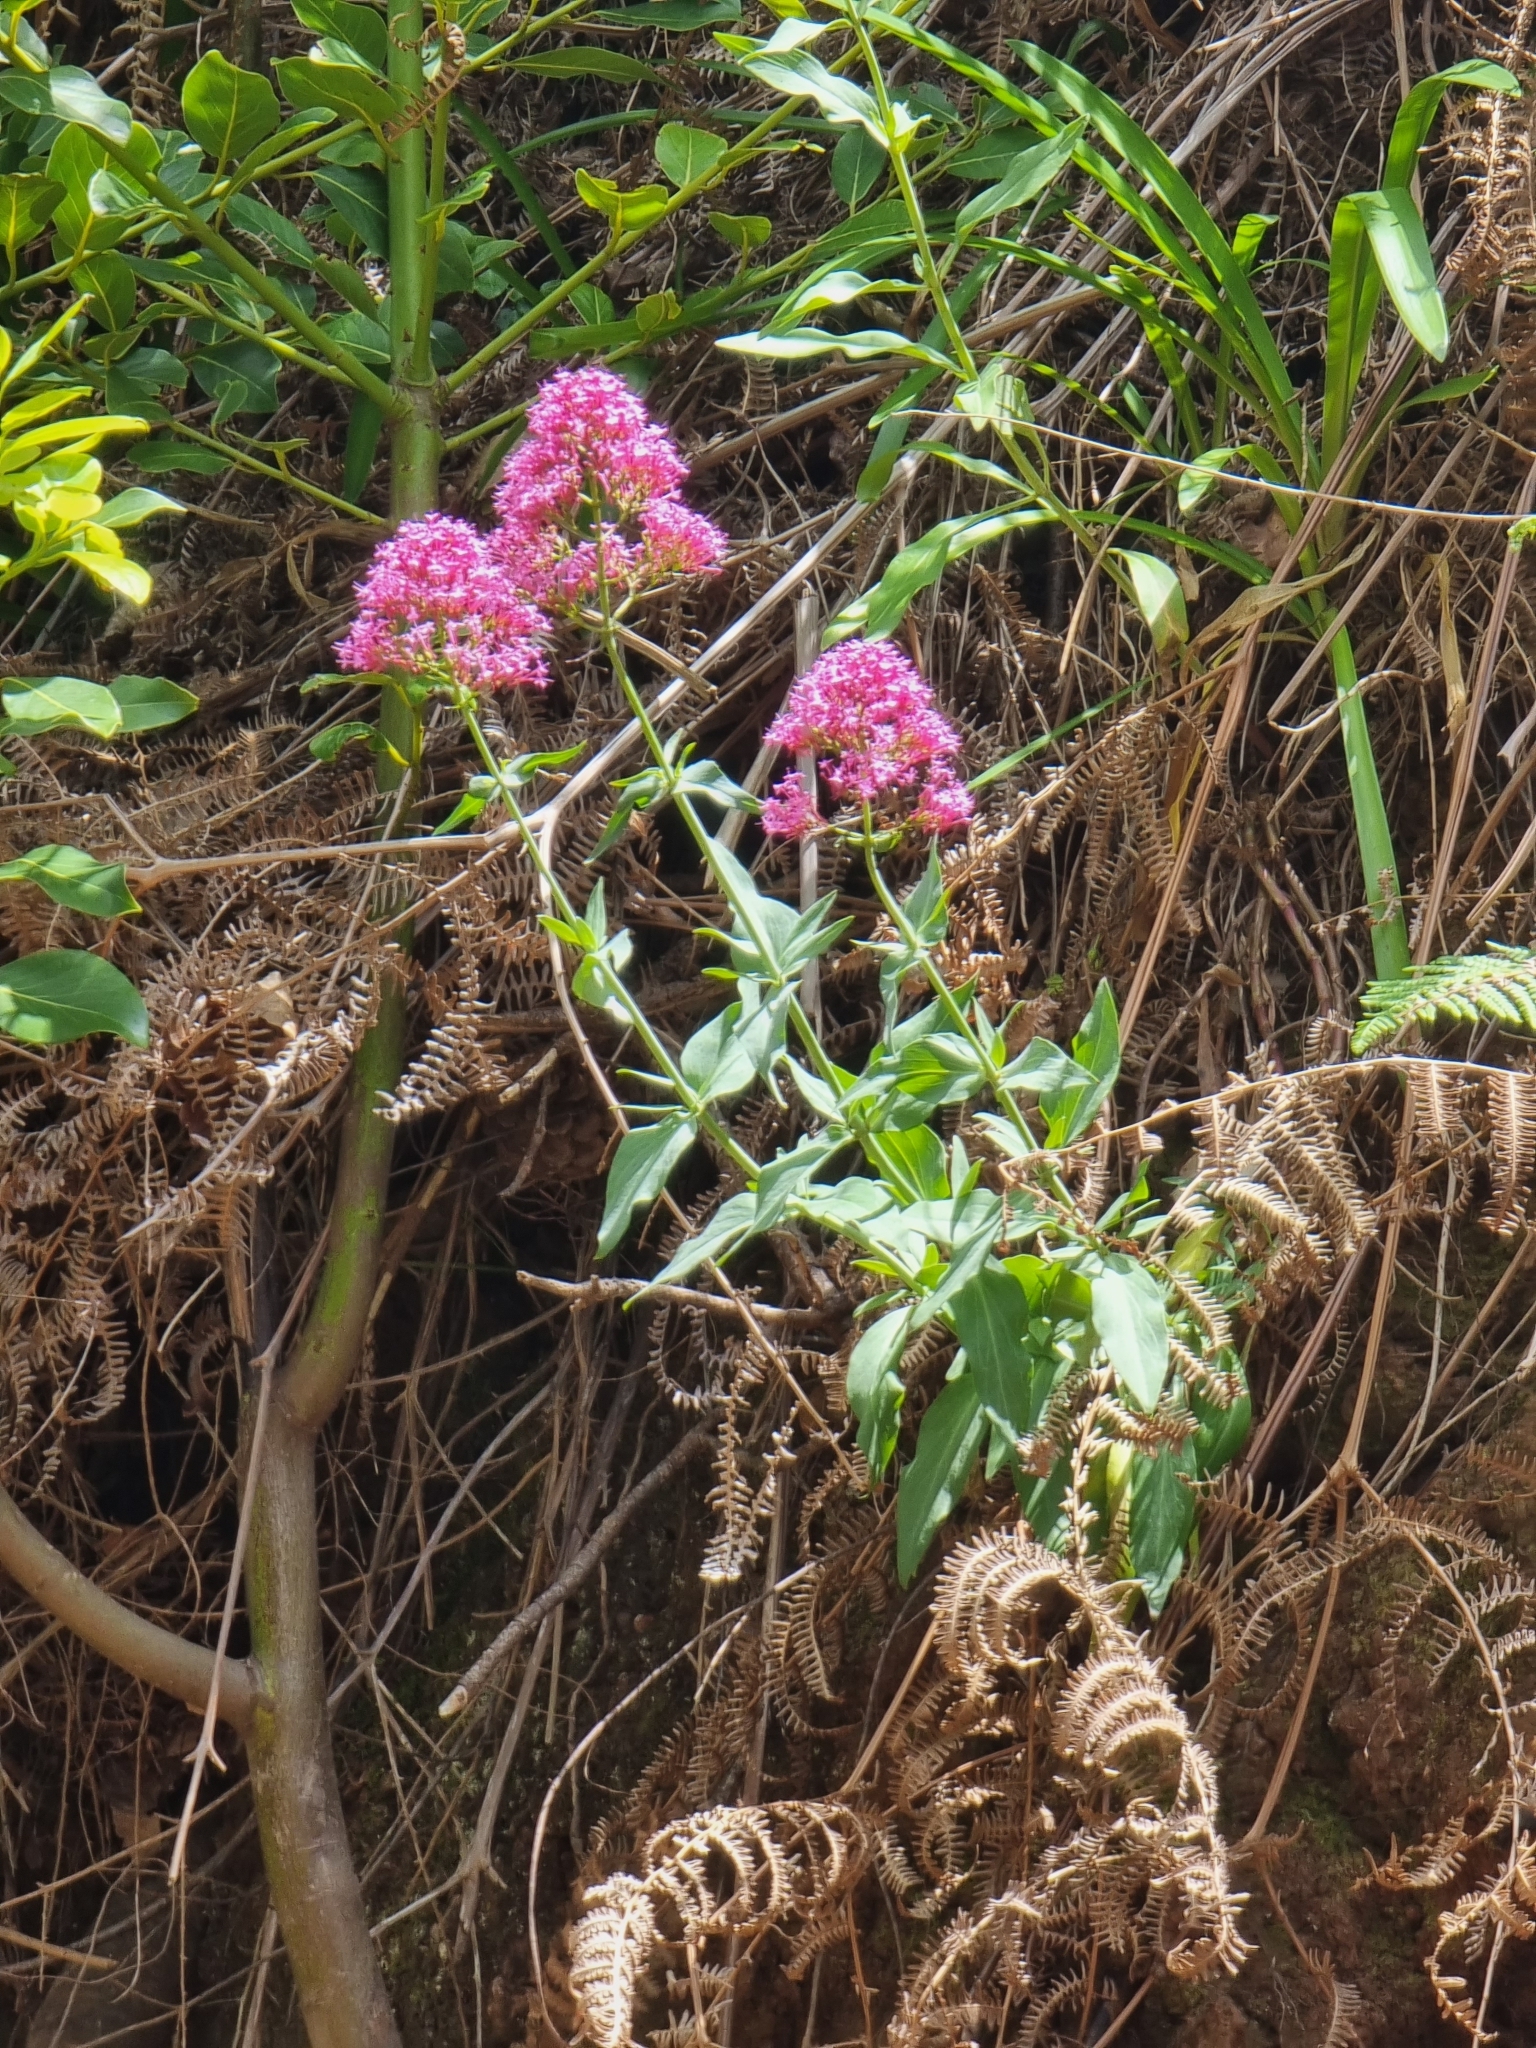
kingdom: Plantae
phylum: Tracheophyta
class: Magnoliopsida
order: Dipsacales
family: Caprifoliaceae
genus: Centranthus
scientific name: Centranthus ruber
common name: Red valerian
